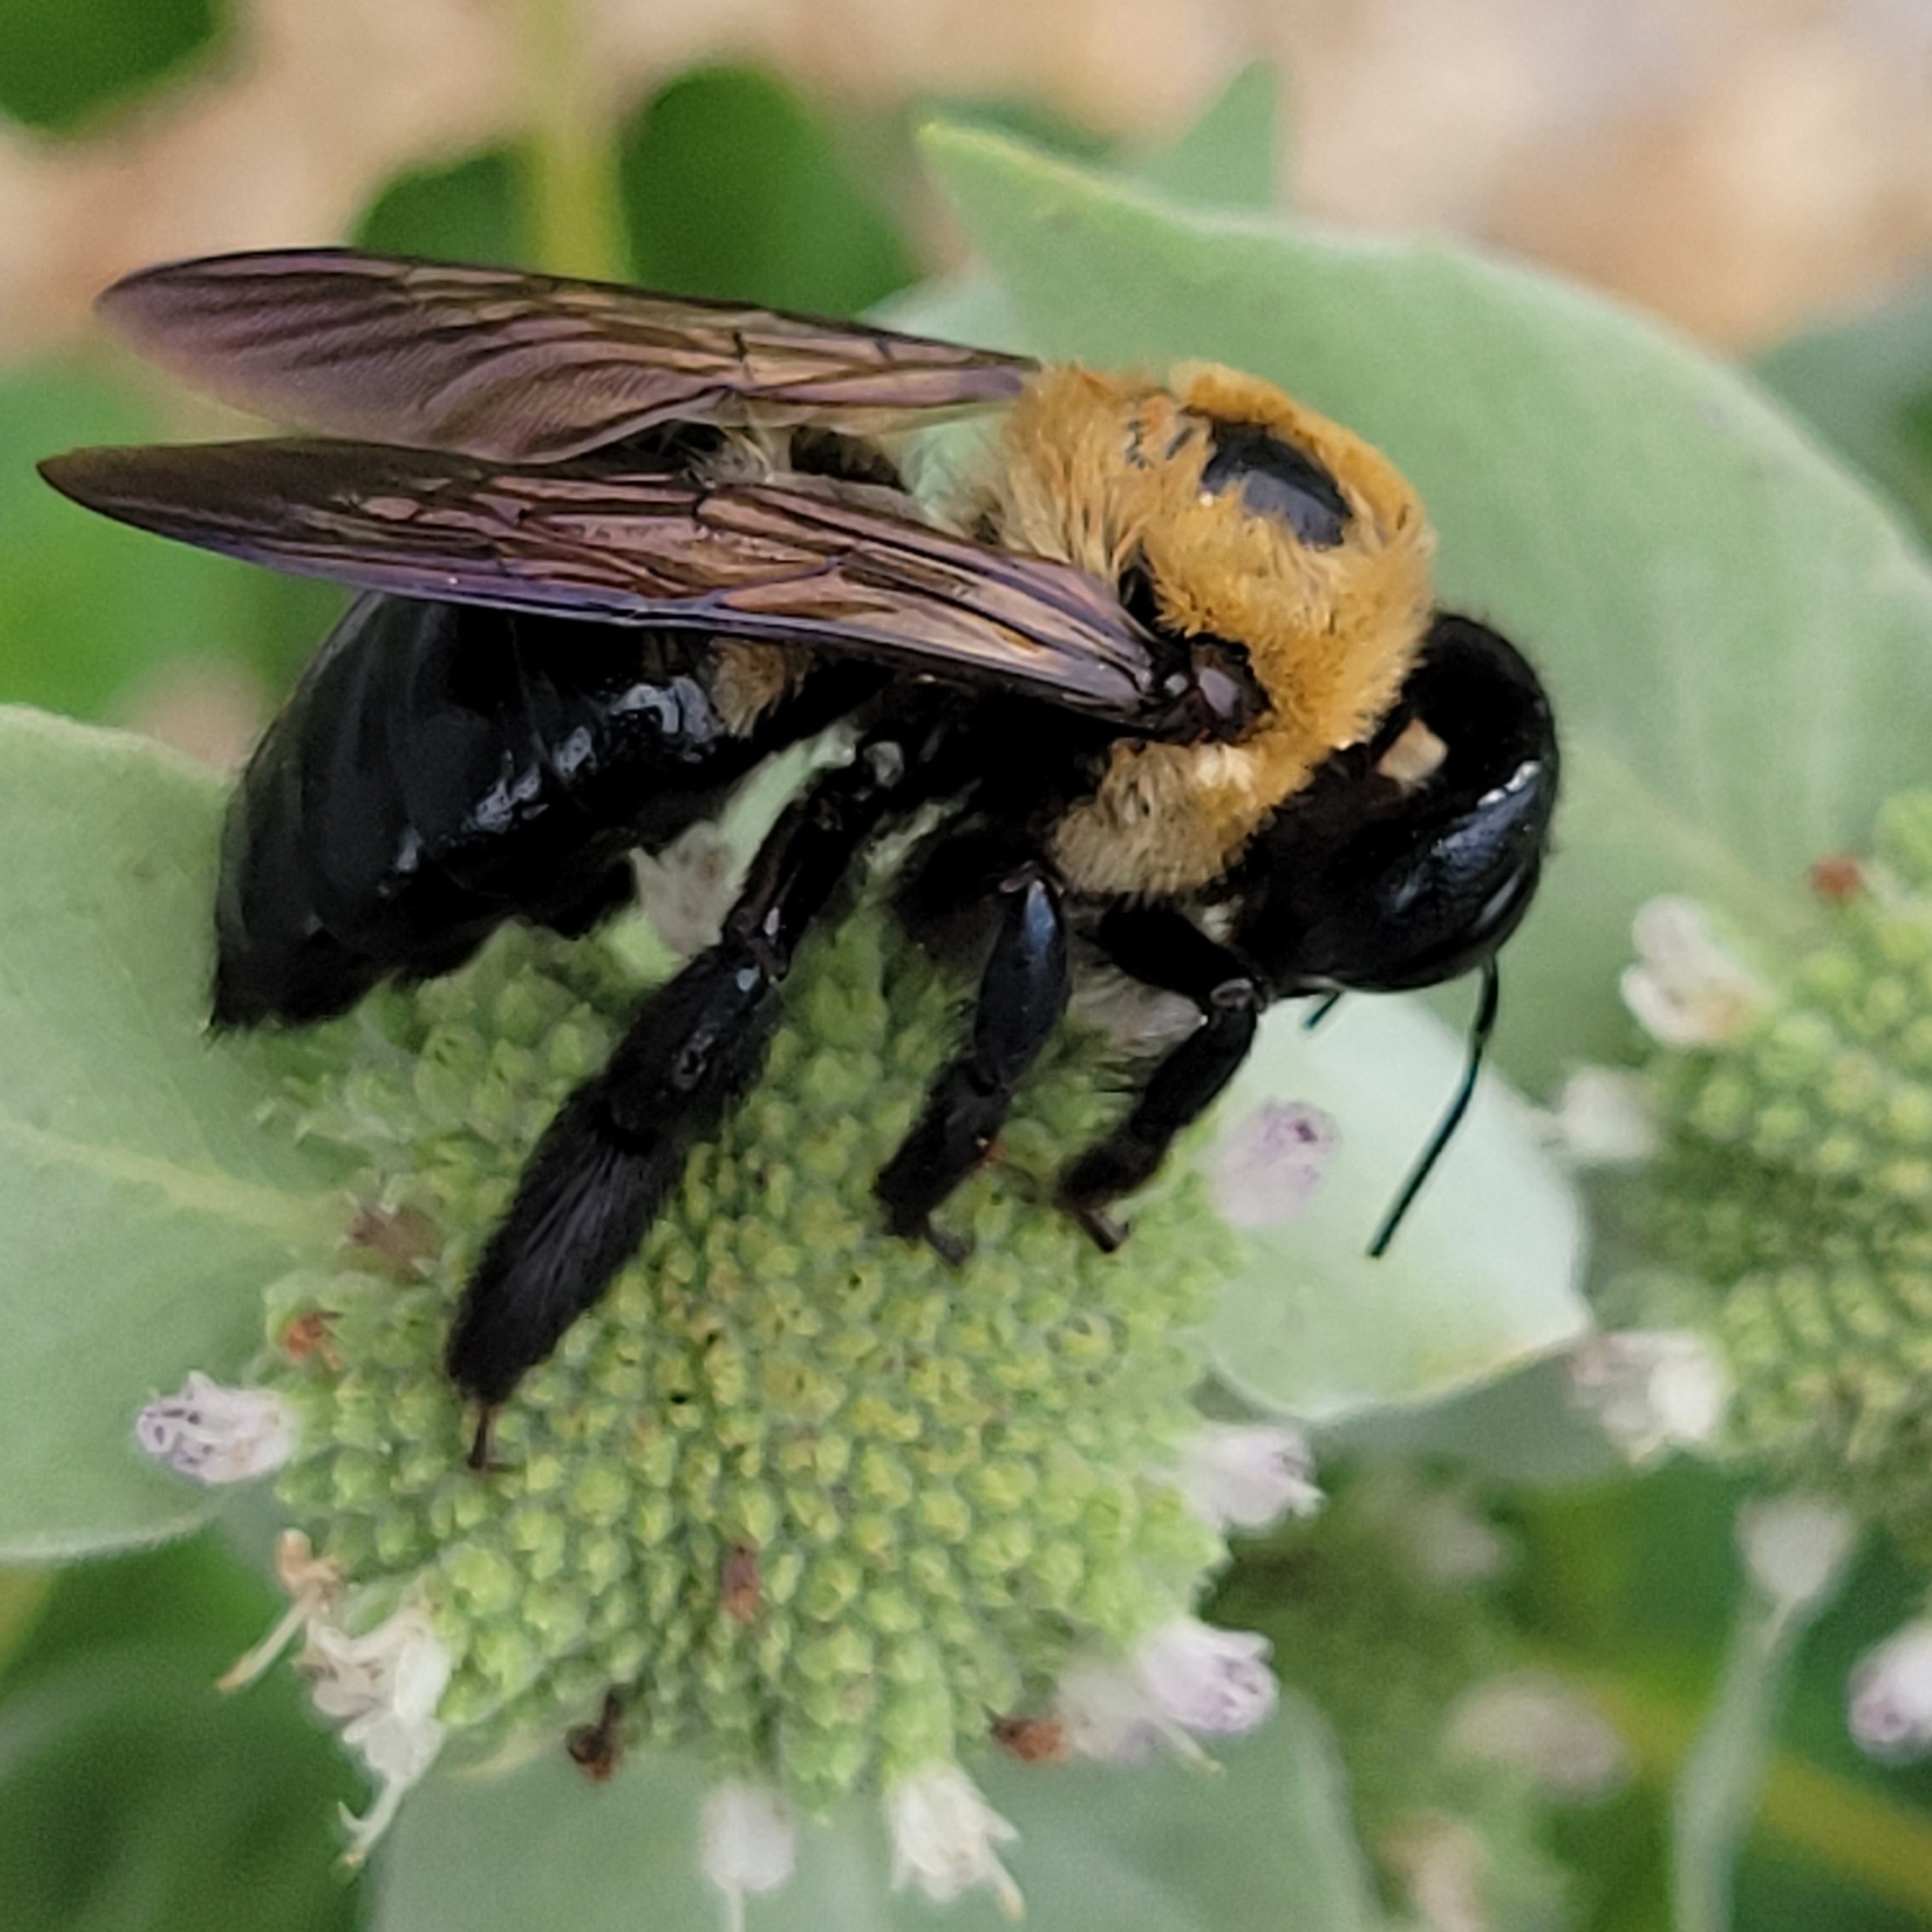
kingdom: Animalia
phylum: Arthropoda
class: Insecta
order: Hymenoptera
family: Apidae
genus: Xylocopa
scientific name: Xylocopa virginica
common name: Carpenter bee
